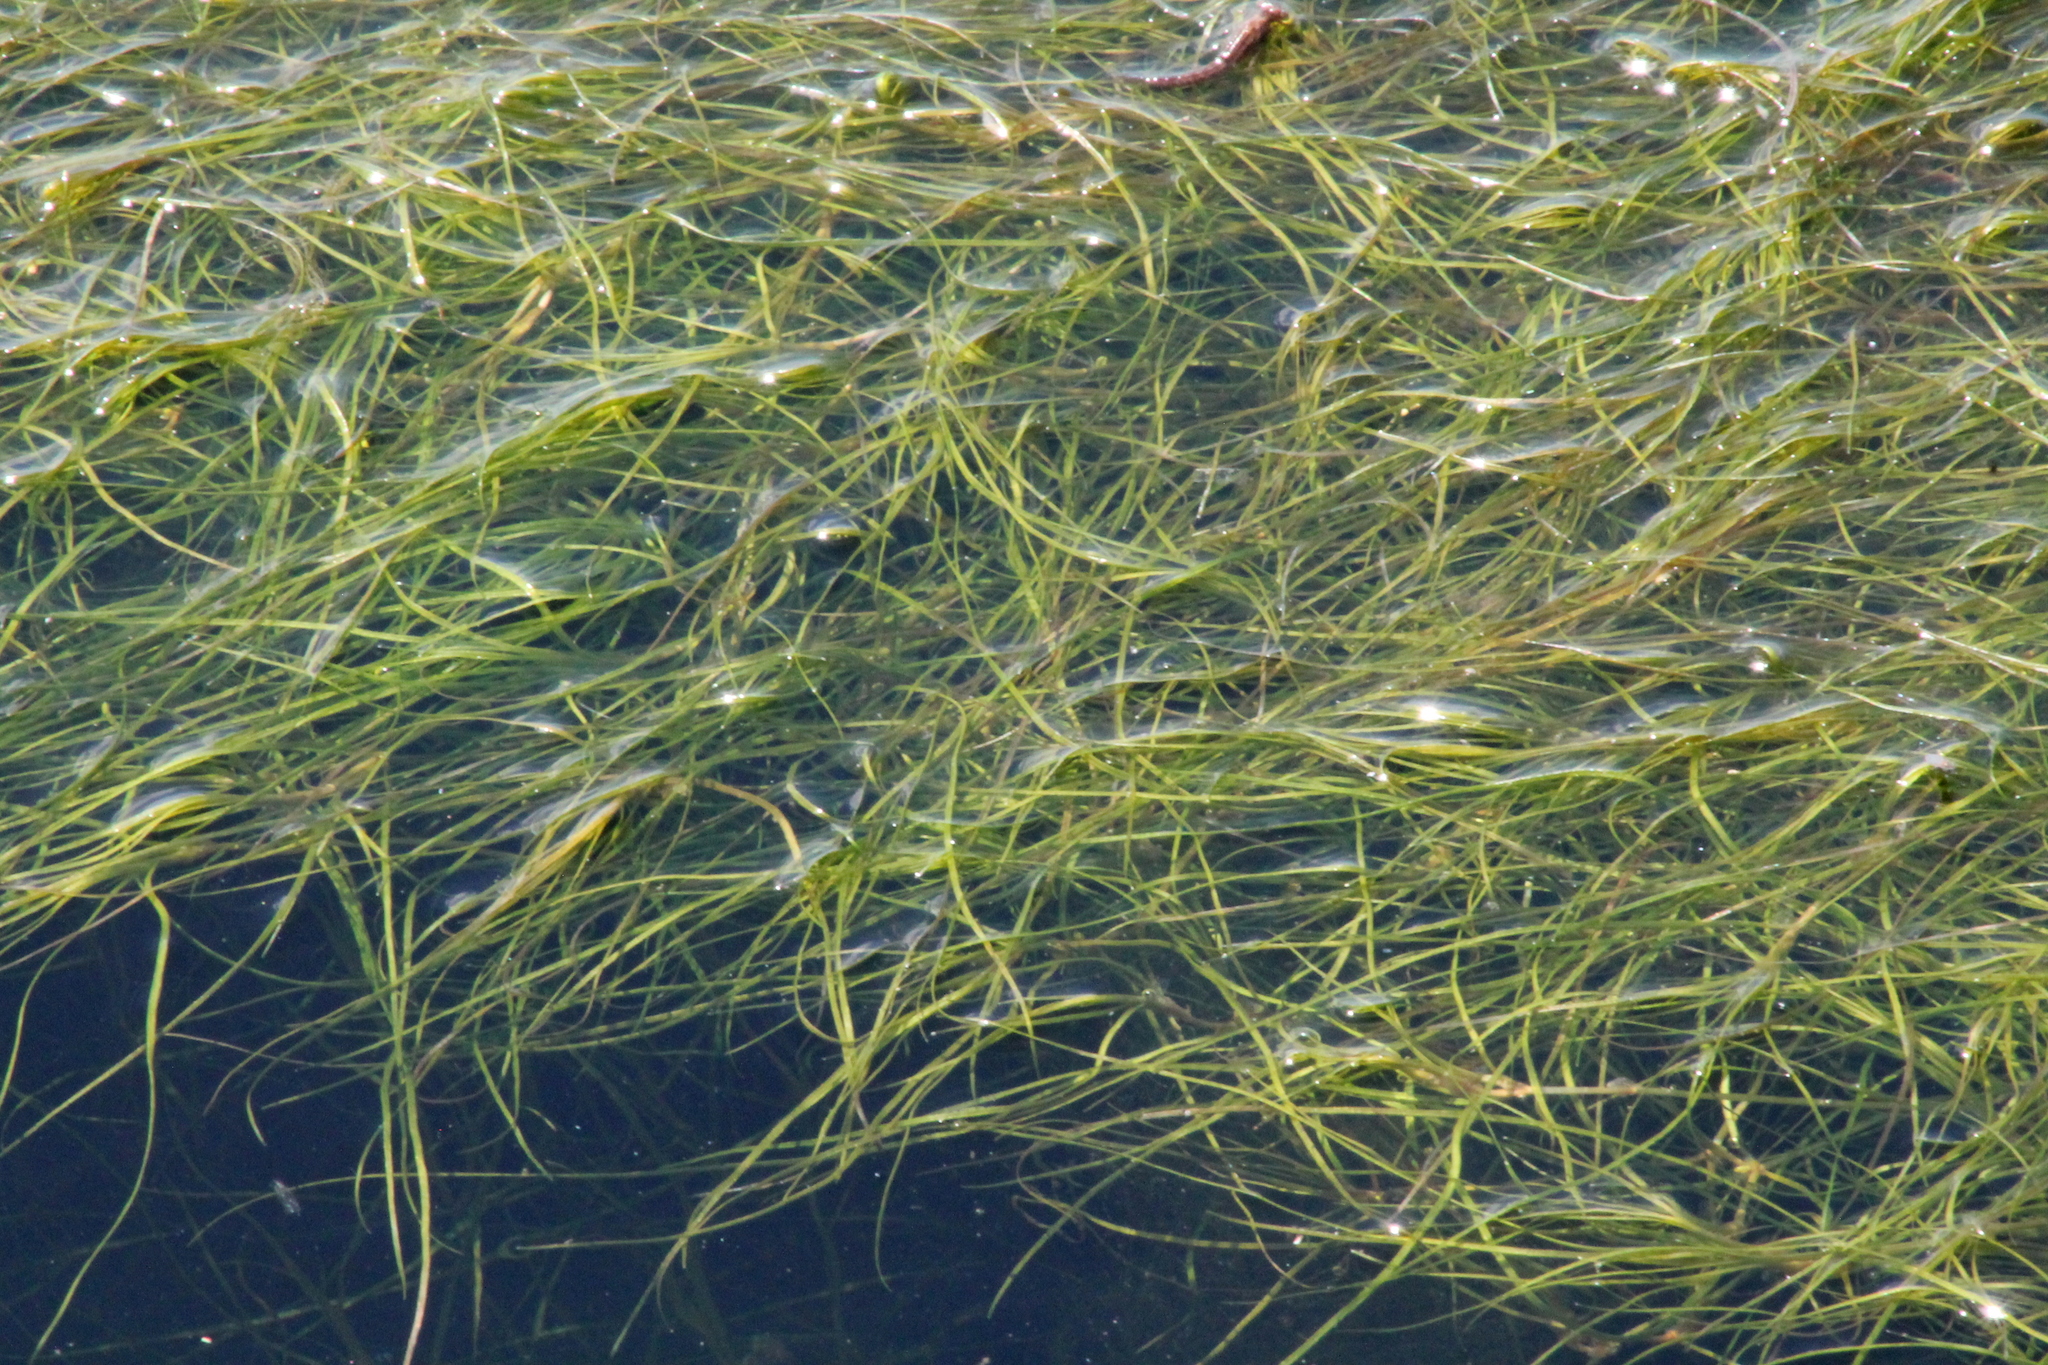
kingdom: Plantae
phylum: Tracheophyta
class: Liliopsida
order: Alismatales
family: Potamogetonaceae
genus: Stuckenia
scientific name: Stuckenia pectinata
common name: Sago pondweed
